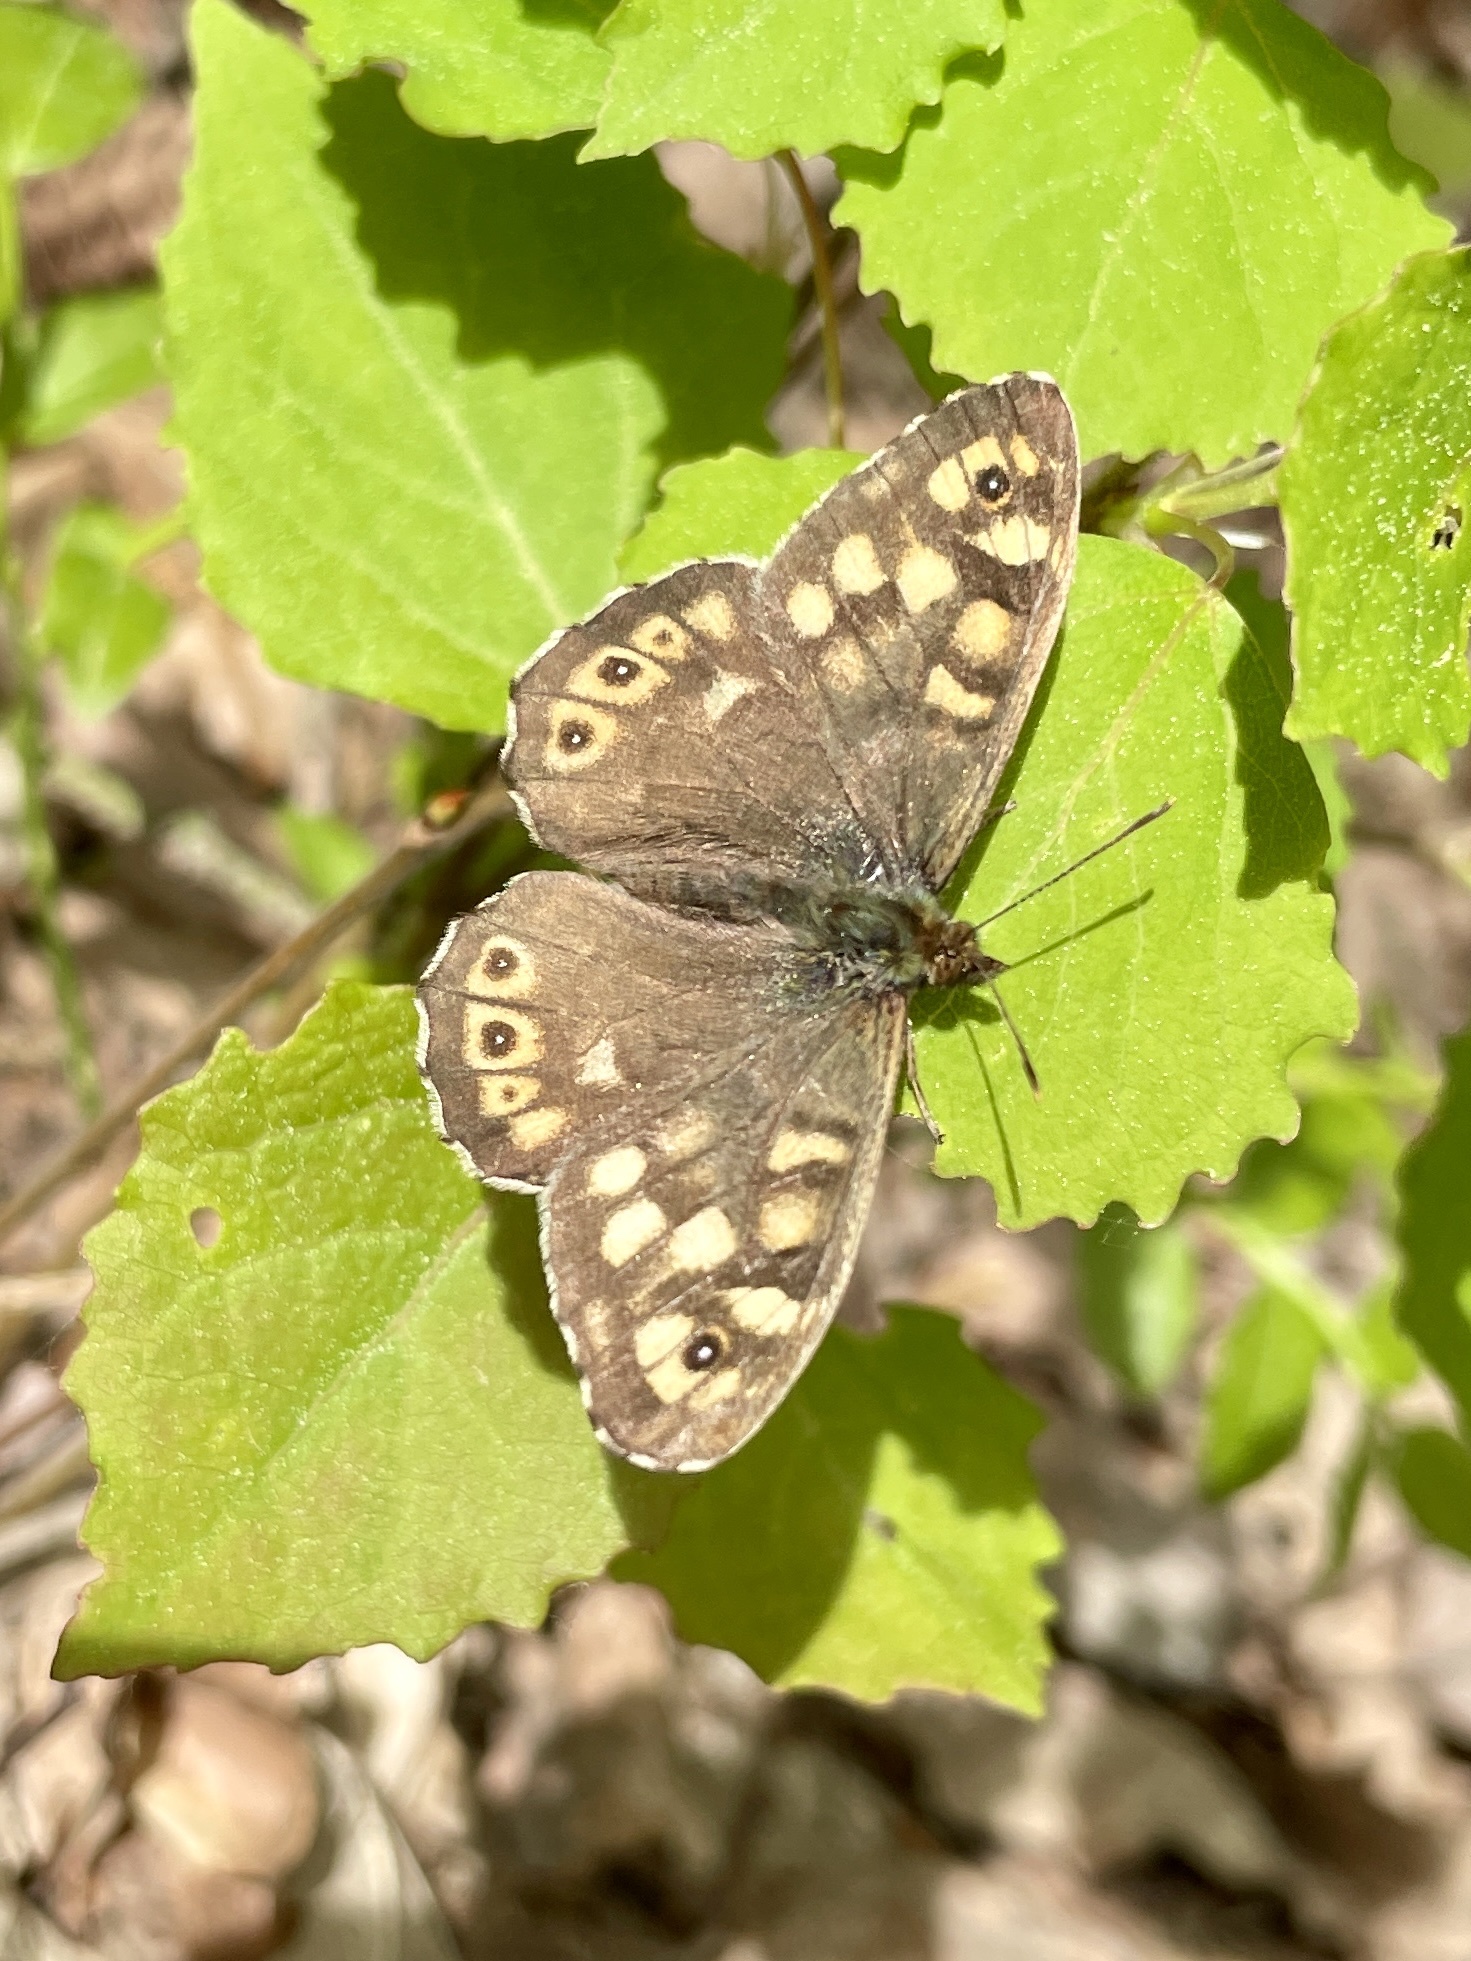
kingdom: Animalia
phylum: Arthropoda
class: Insecta
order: Lepidoptera
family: Nymphalidae
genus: Pararge
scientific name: Pararge aegeria
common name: Speckled wood
